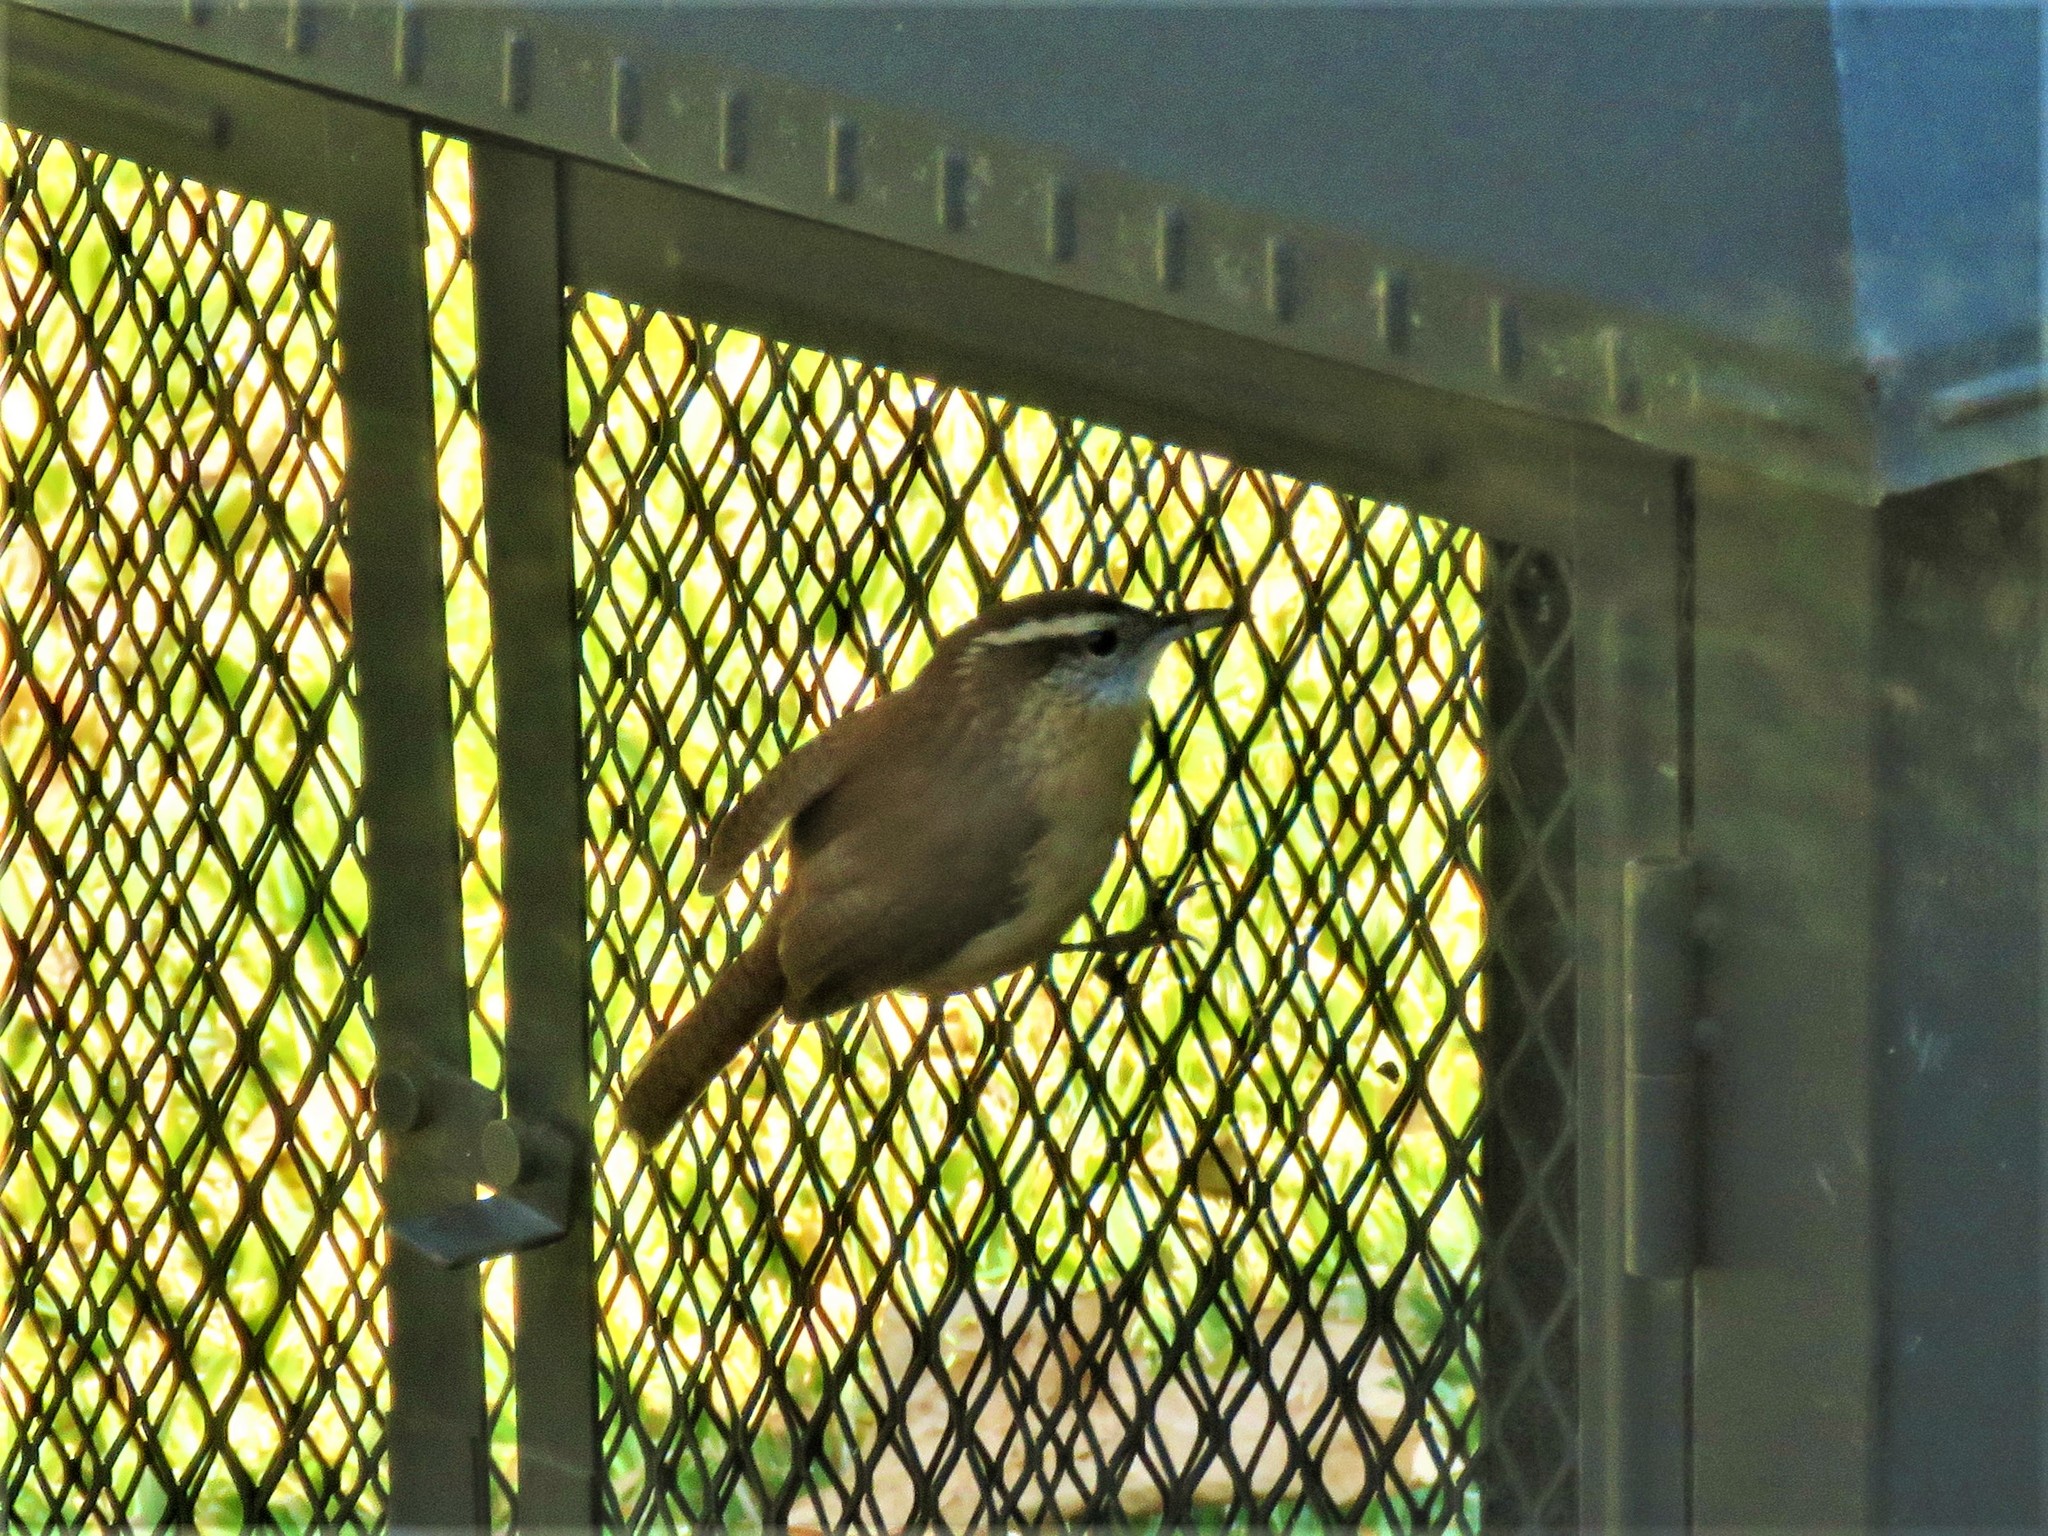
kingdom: Animalia
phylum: Chordata
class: Aves
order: Passeriformes
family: Troglodytidae
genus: Thryothorus
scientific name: Thryothorus ludovicianus
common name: Carolina wren
